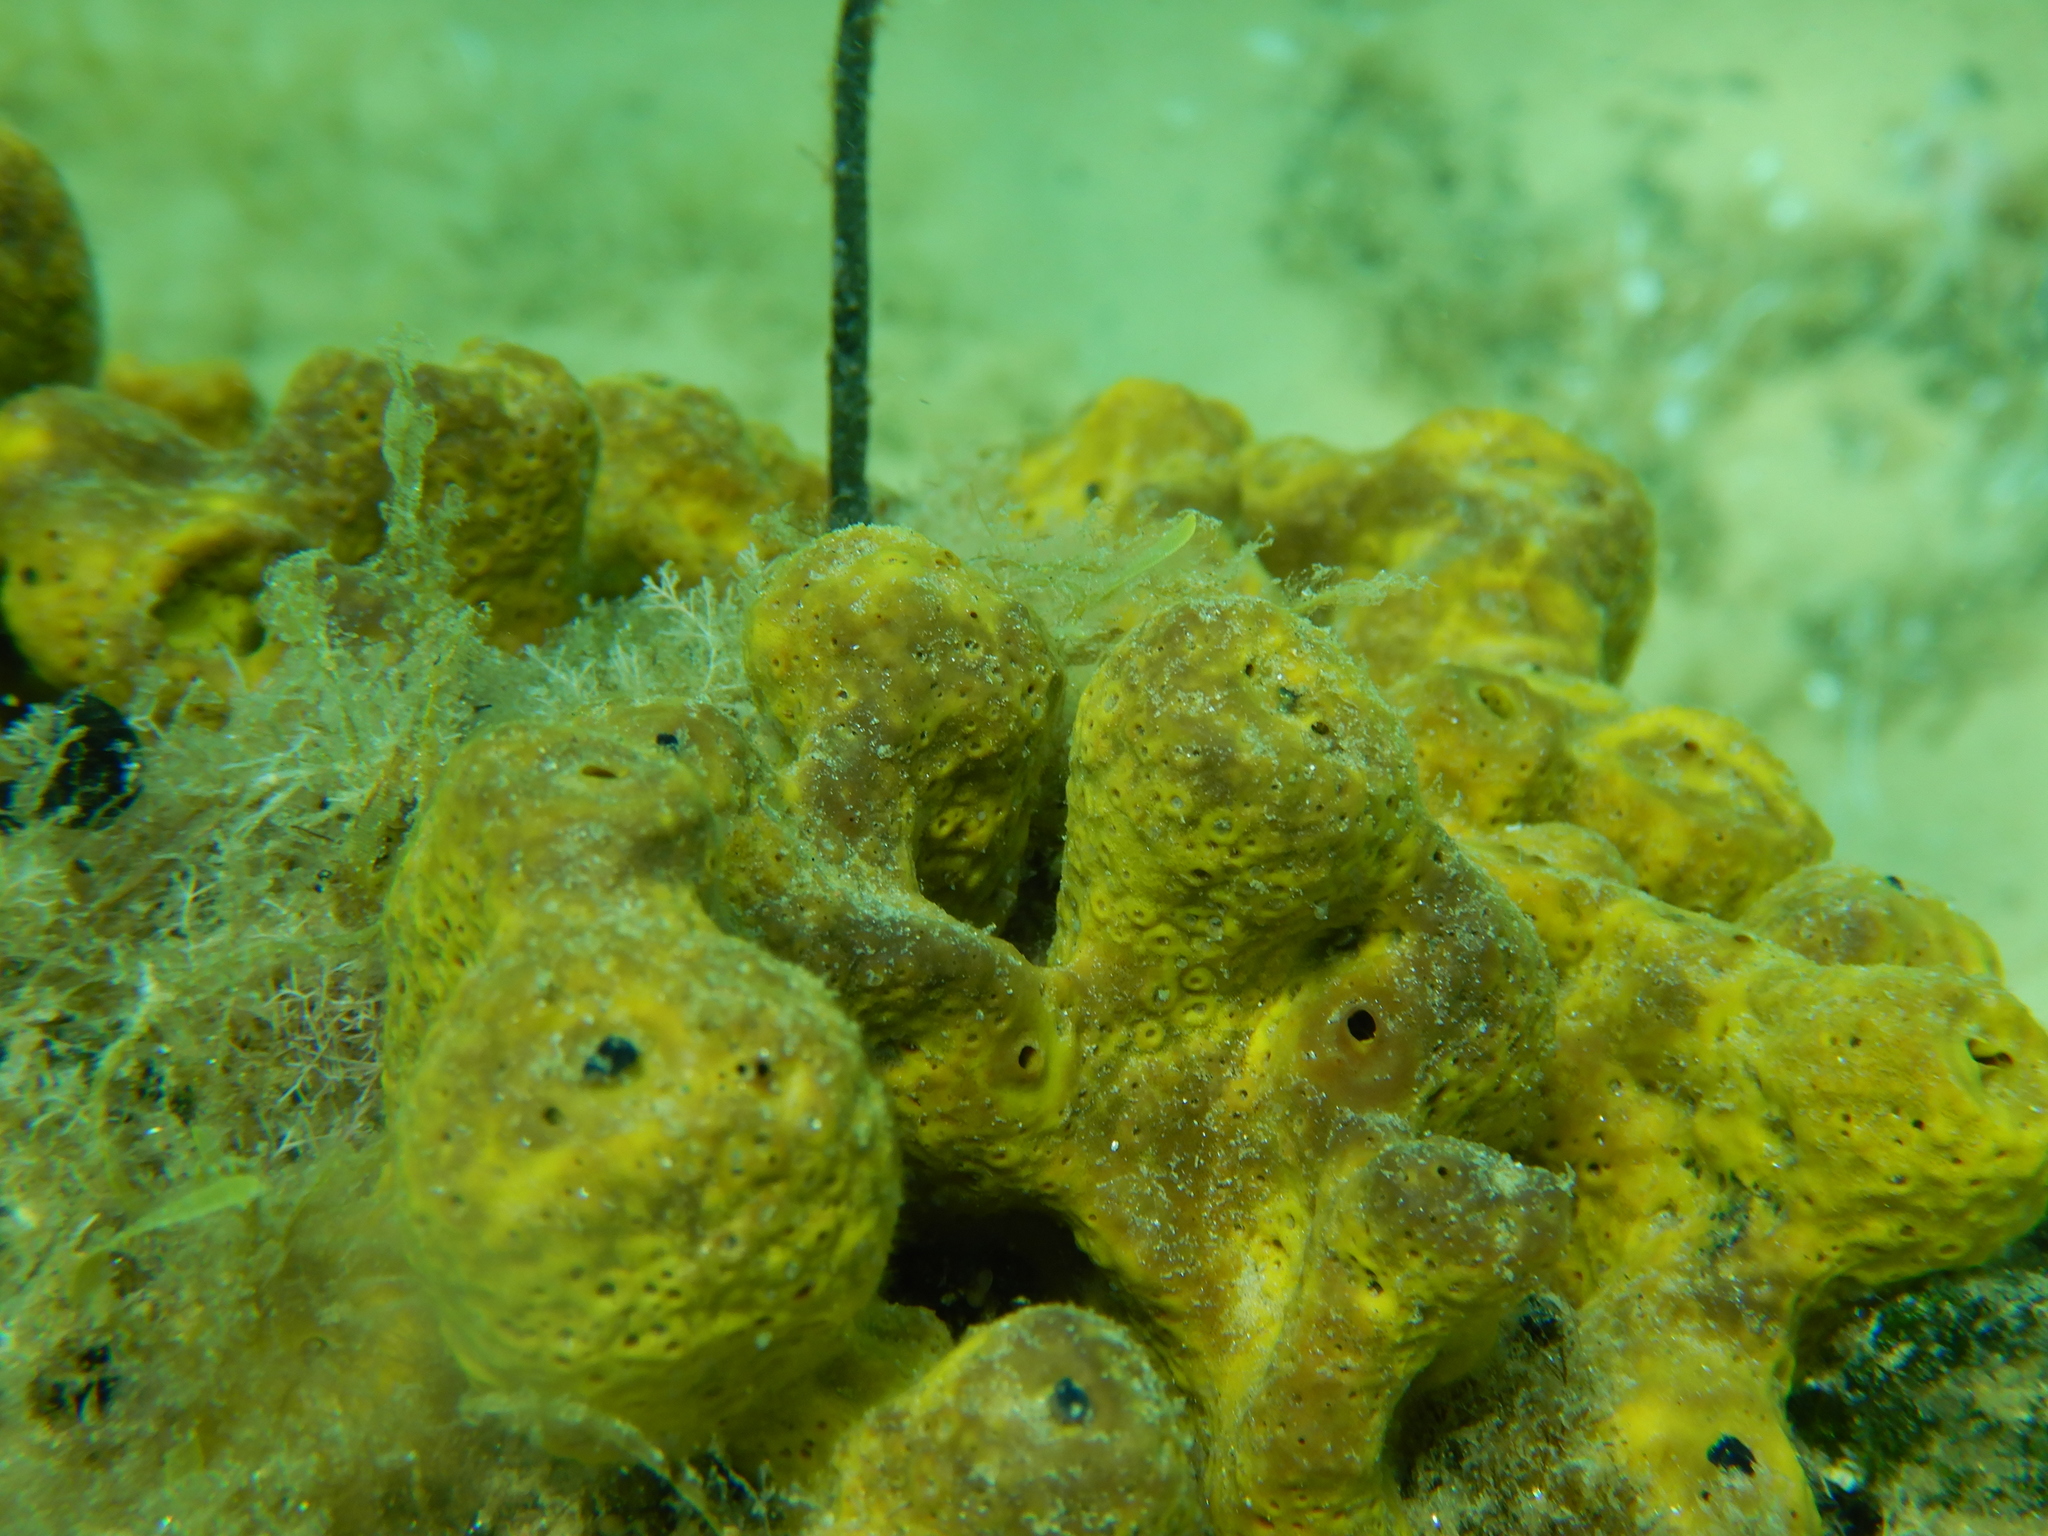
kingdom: Animalia
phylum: Porifera
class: Demospongiae
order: Verongiida
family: Aplysinidae
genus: Aplysina
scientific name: Aplysina aerophoba
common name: Aureate sponge
